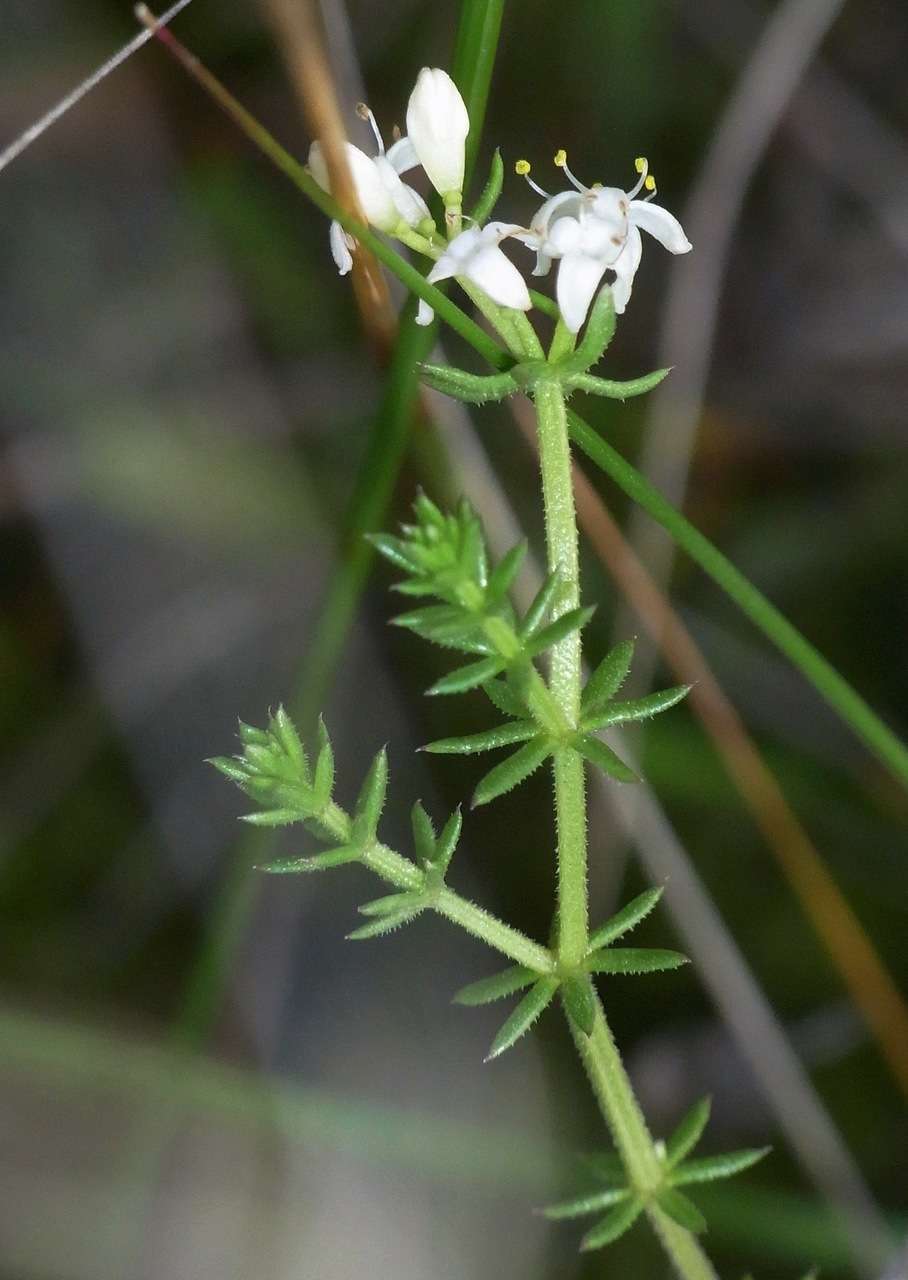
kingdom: Plantae
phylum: Tracheophyta
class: Magnoliopsida
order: Gentianales
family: Rubiaceae
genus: Asperula
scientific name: Asperula conferta
